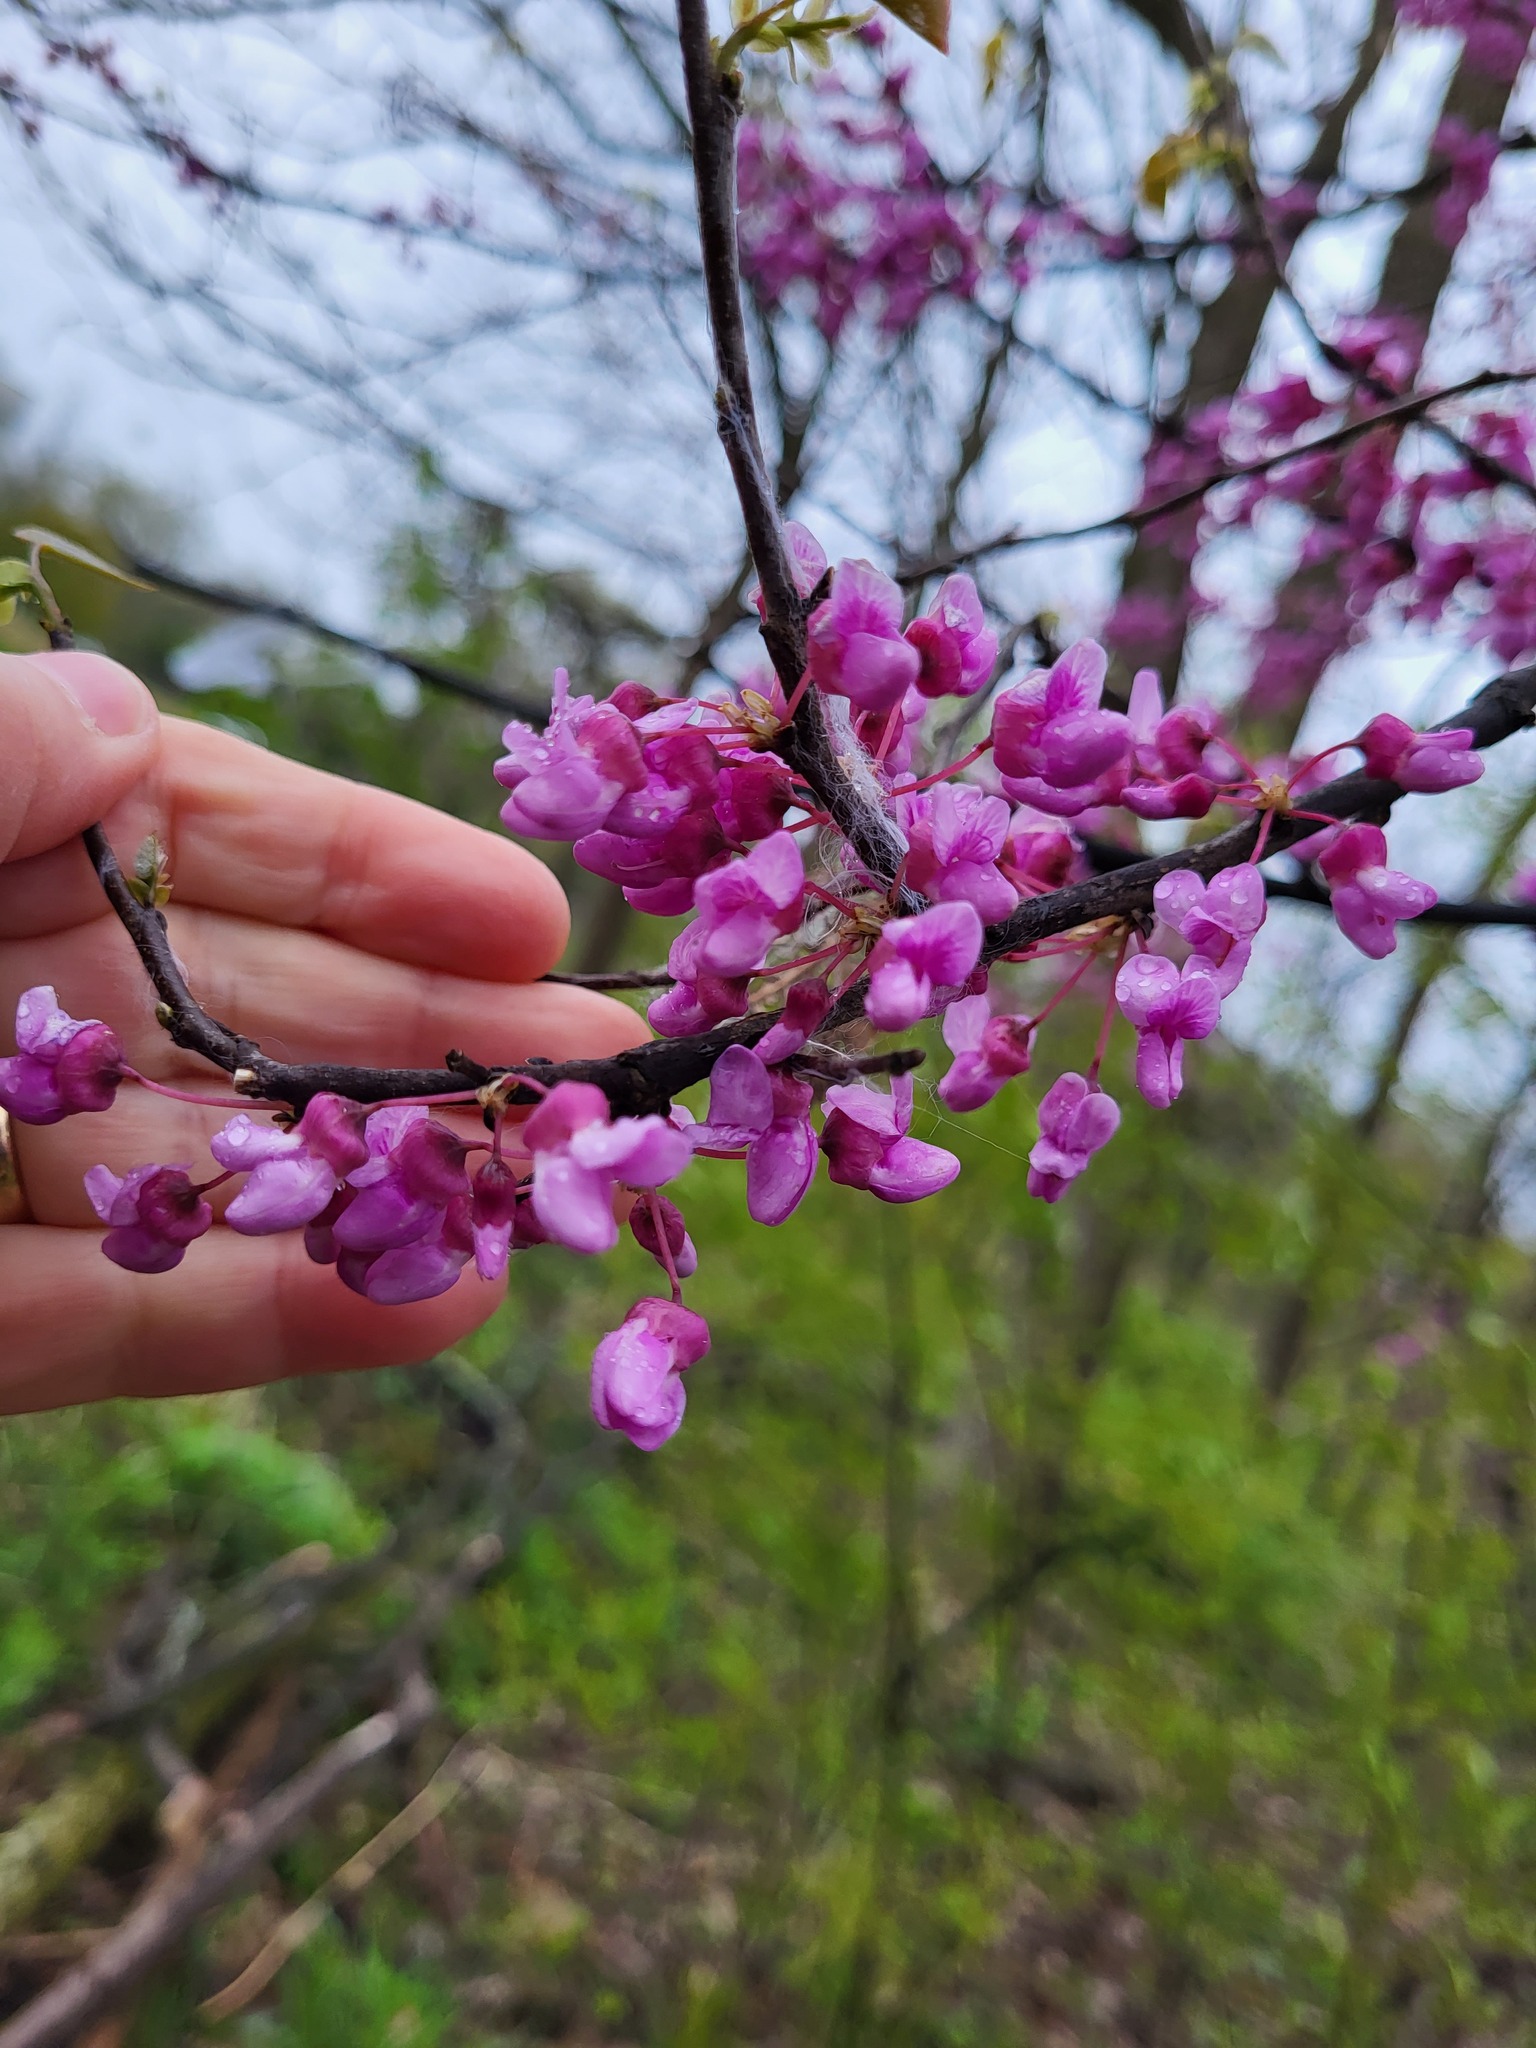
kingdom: Plantae
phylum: Tracheophyta
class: Magnoliopsida
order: Fabales
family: Fabaceae
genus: Cercis
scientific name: Cercis canadensis
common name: Eastern redbud
